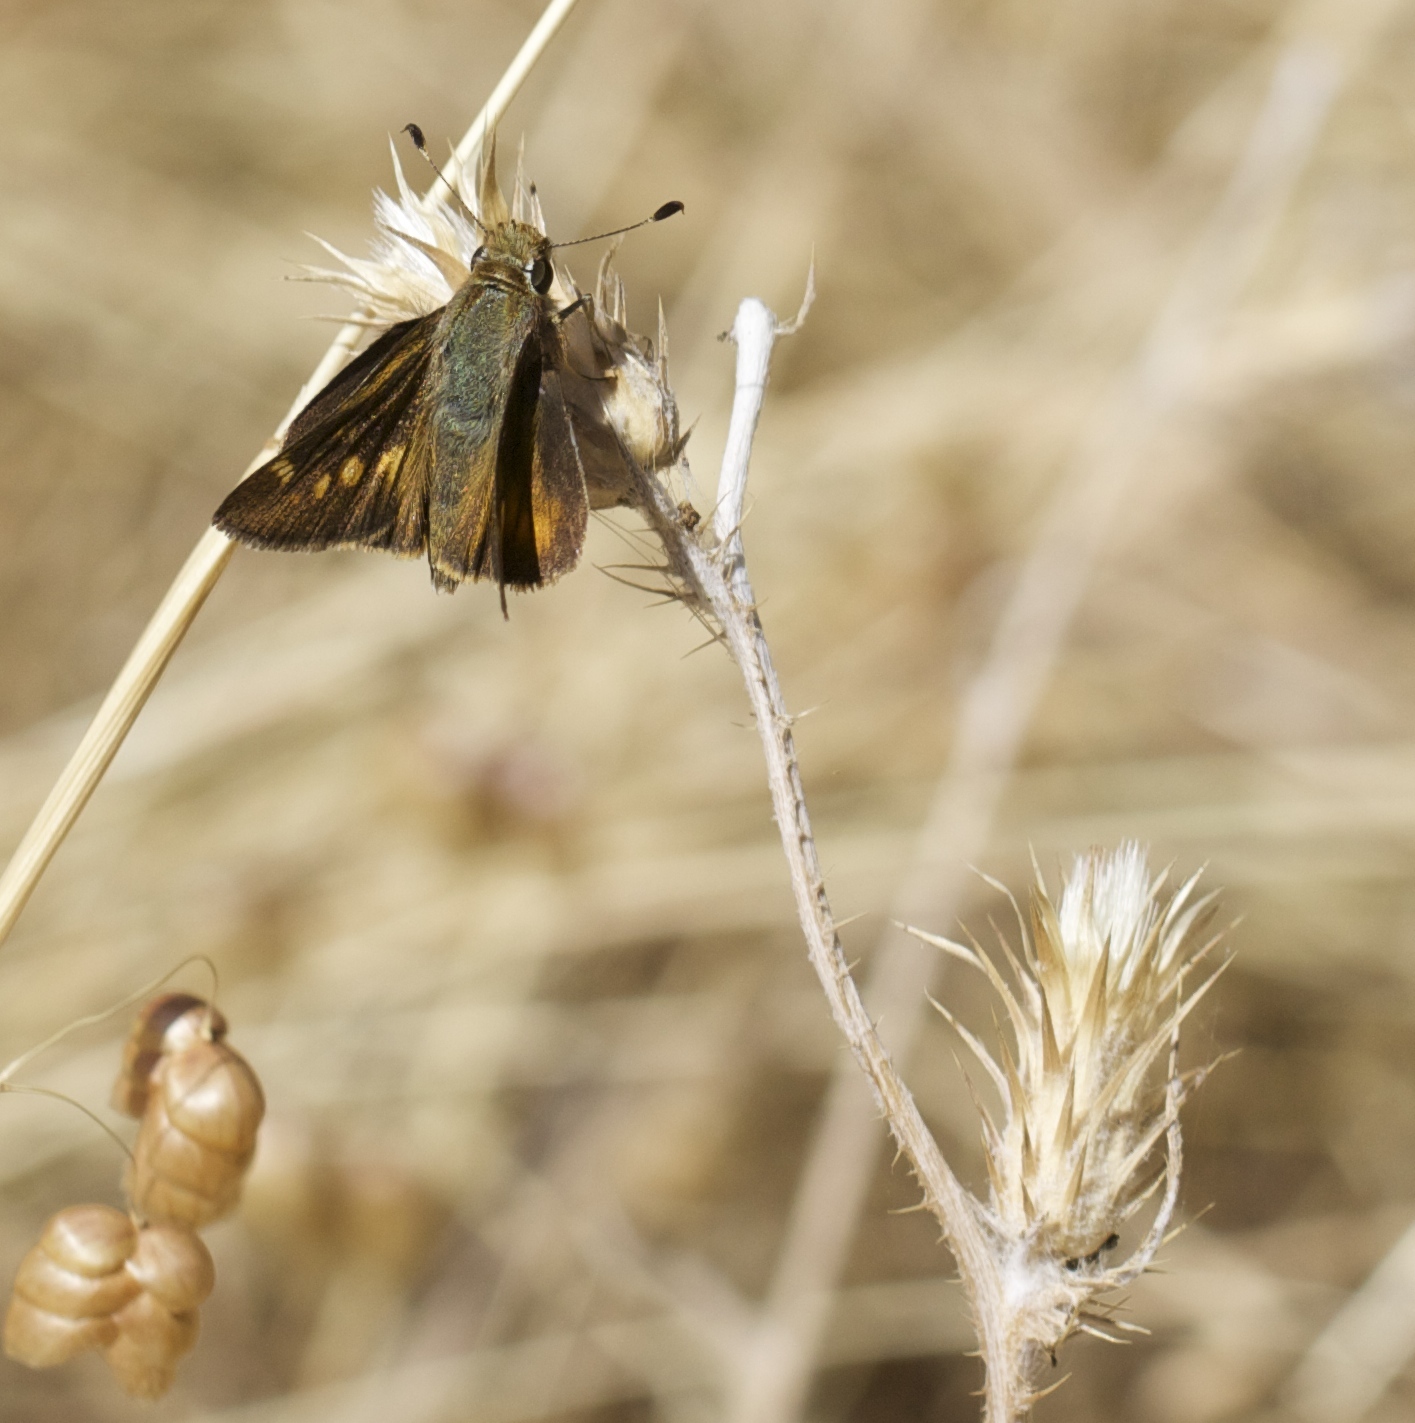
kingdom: Animalia
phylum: Arthropoda
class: Insecta
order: Lepidoptera
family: Hesperiidae
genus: Lon
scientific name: Lon melane
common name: Umber skipper
